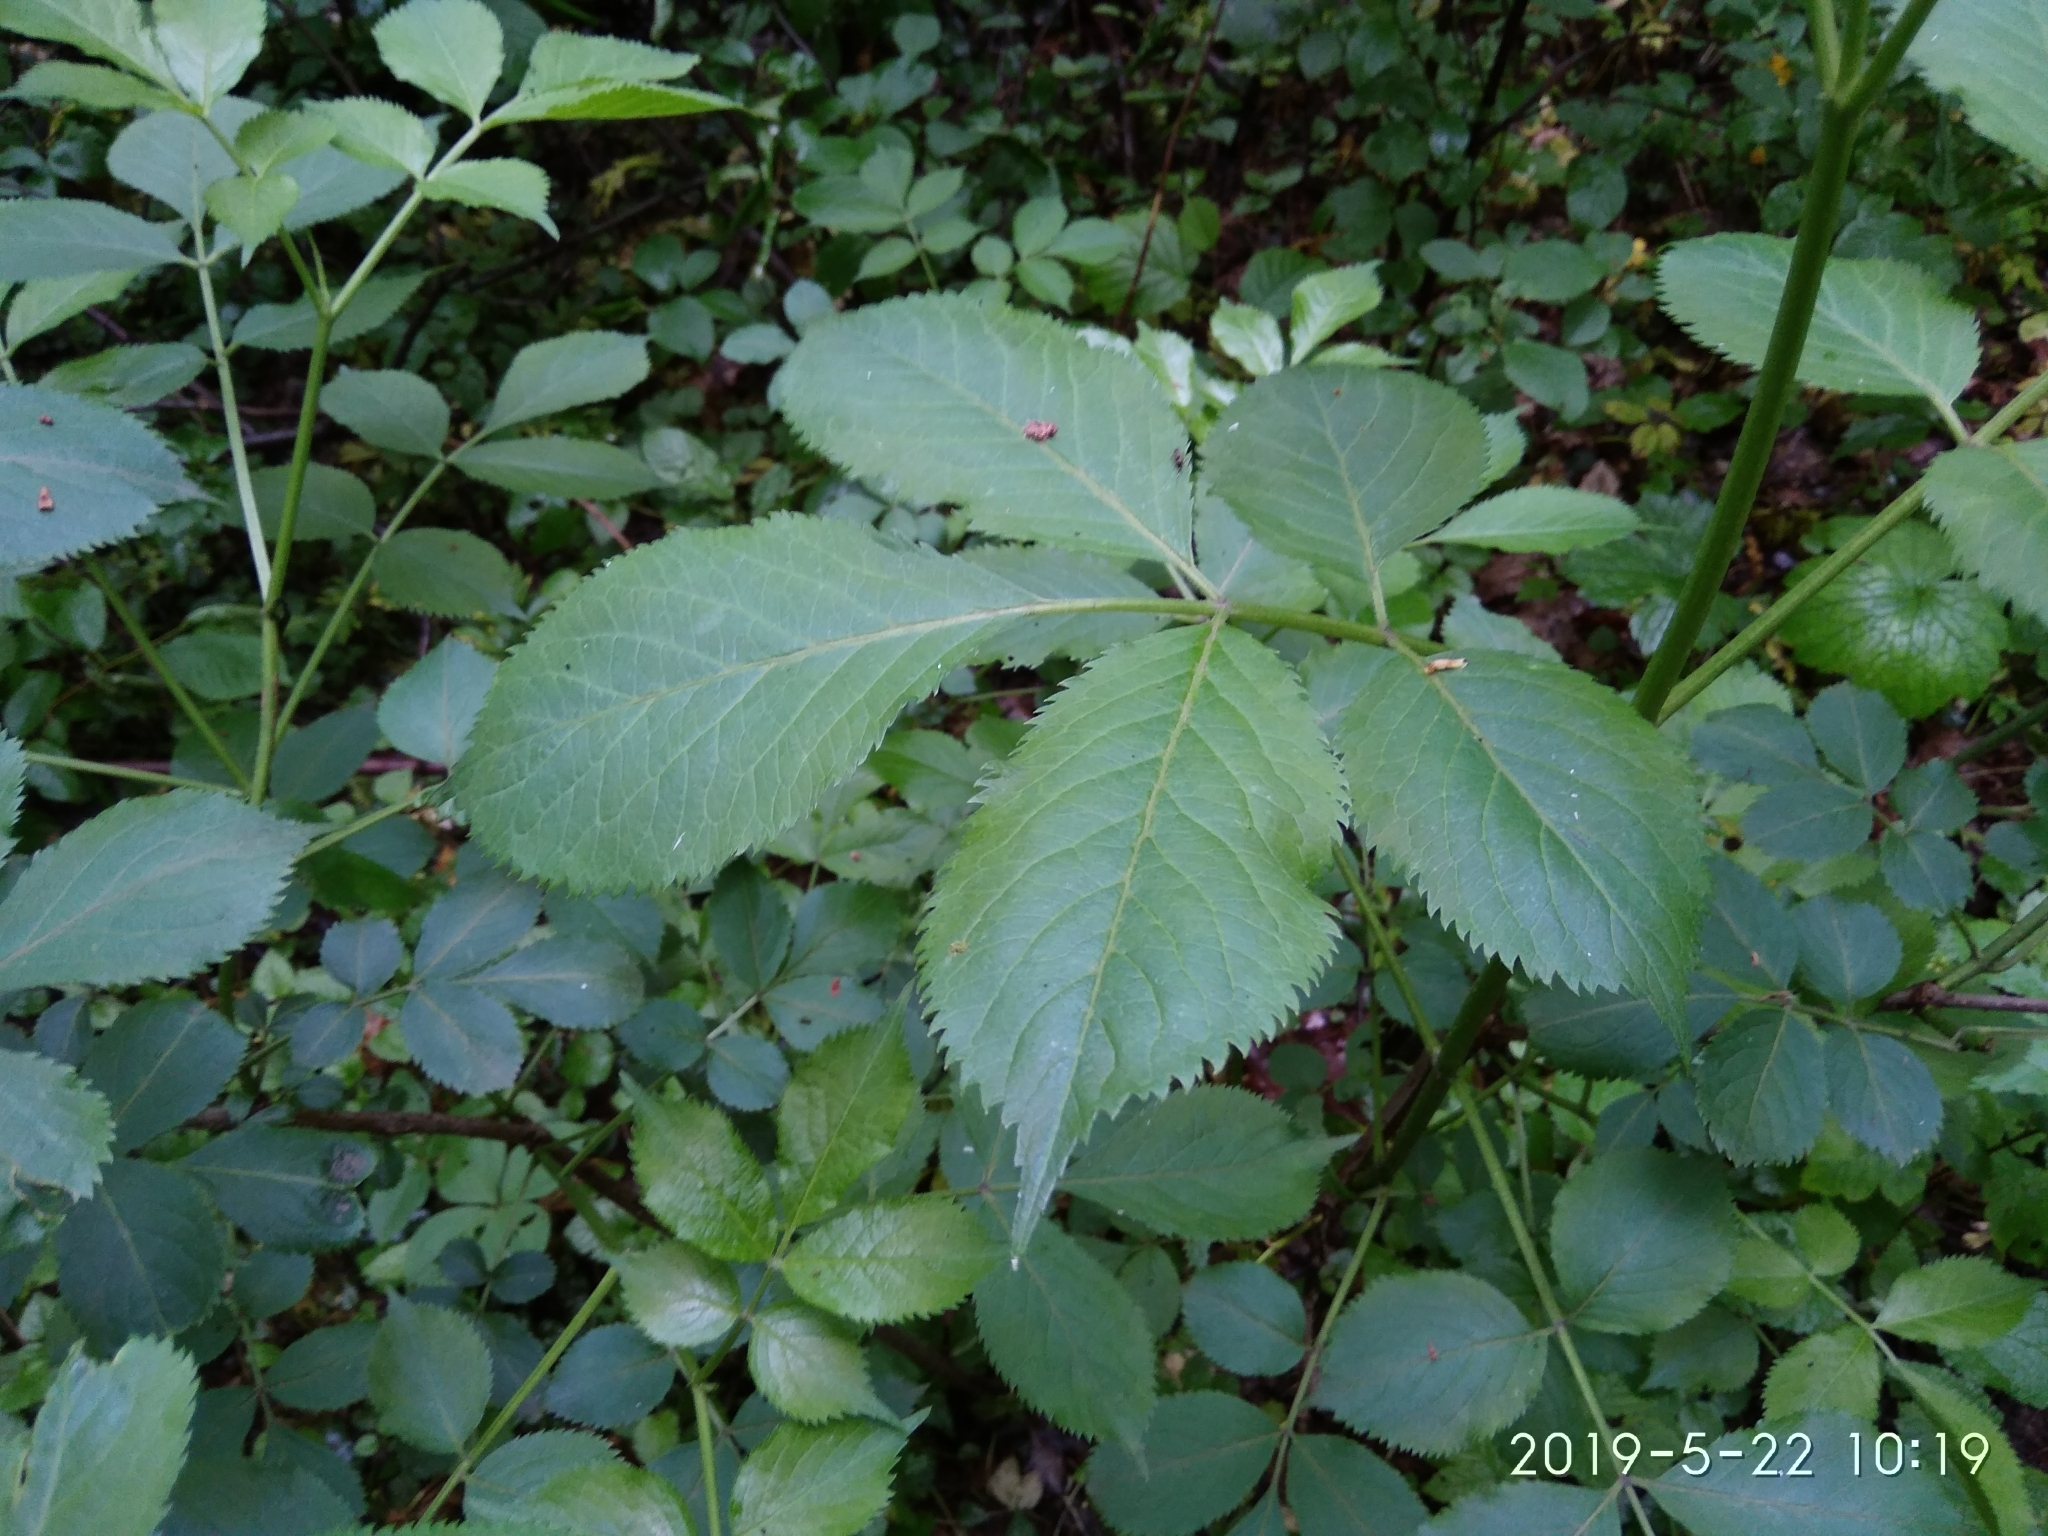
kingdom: Plantae
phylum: Tracheophyta
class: Magnoliopsida
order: Dipsacales
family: Viburnaceae
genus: Sambucus
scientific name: Sambucus nigra
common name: Elder
